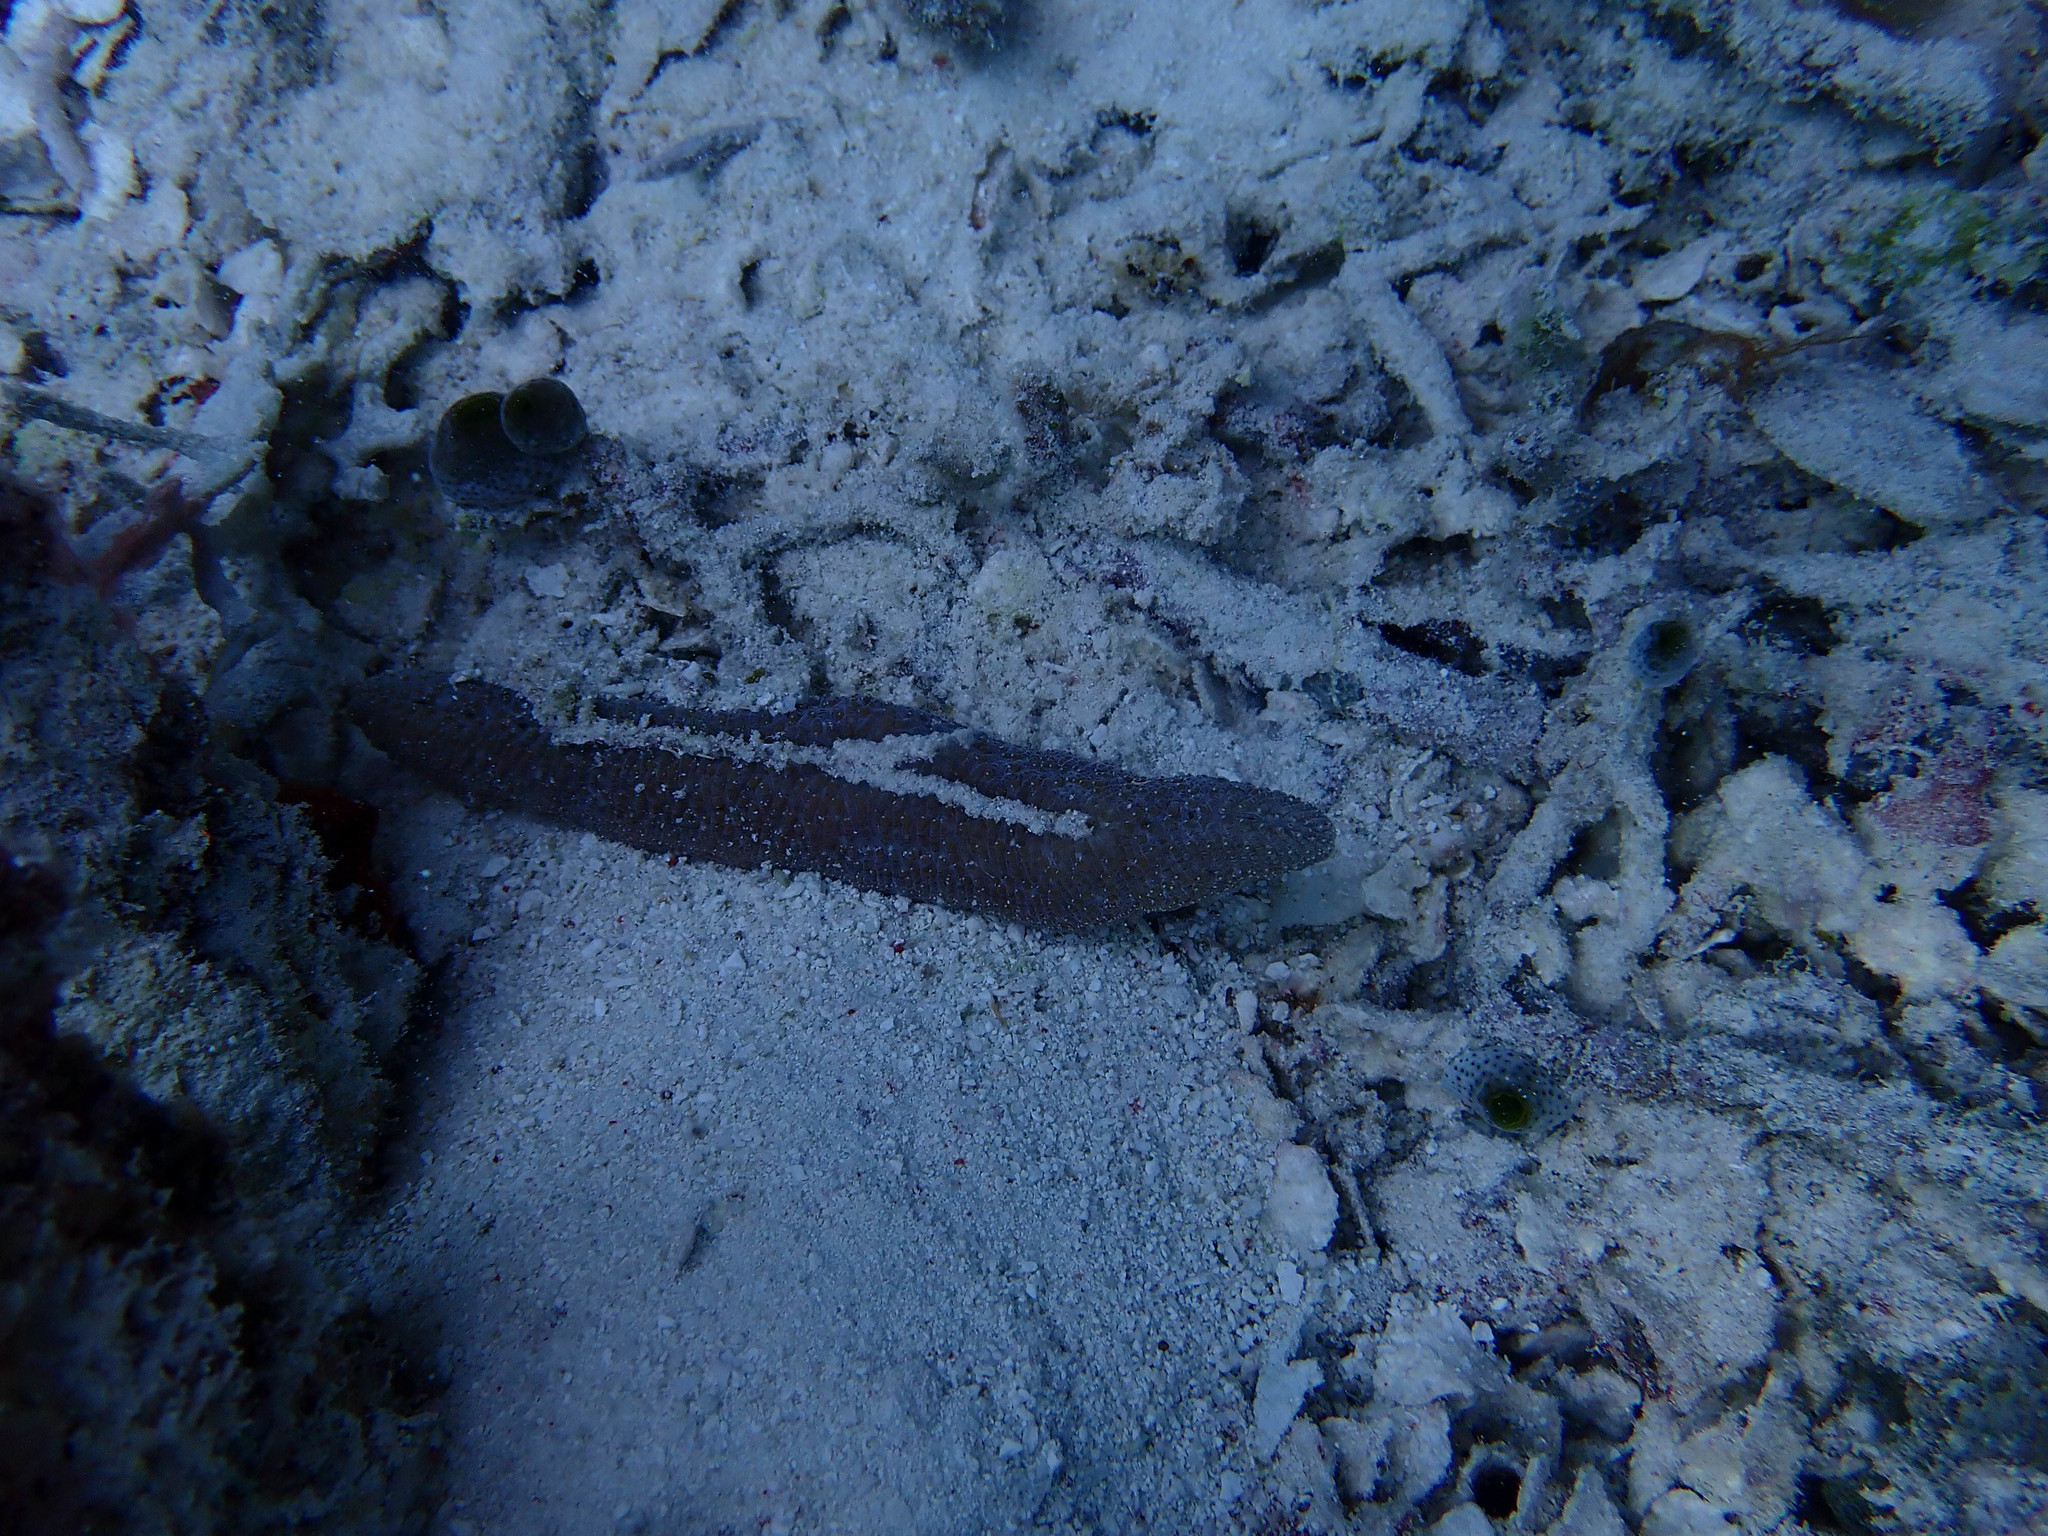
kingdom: Animalia
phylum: Cnidaria
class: Anthozoa
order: Scleractinia
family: Fungiidae
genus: Herpolitha
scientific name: Herpolitha limax
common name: Striate boomerang coral
